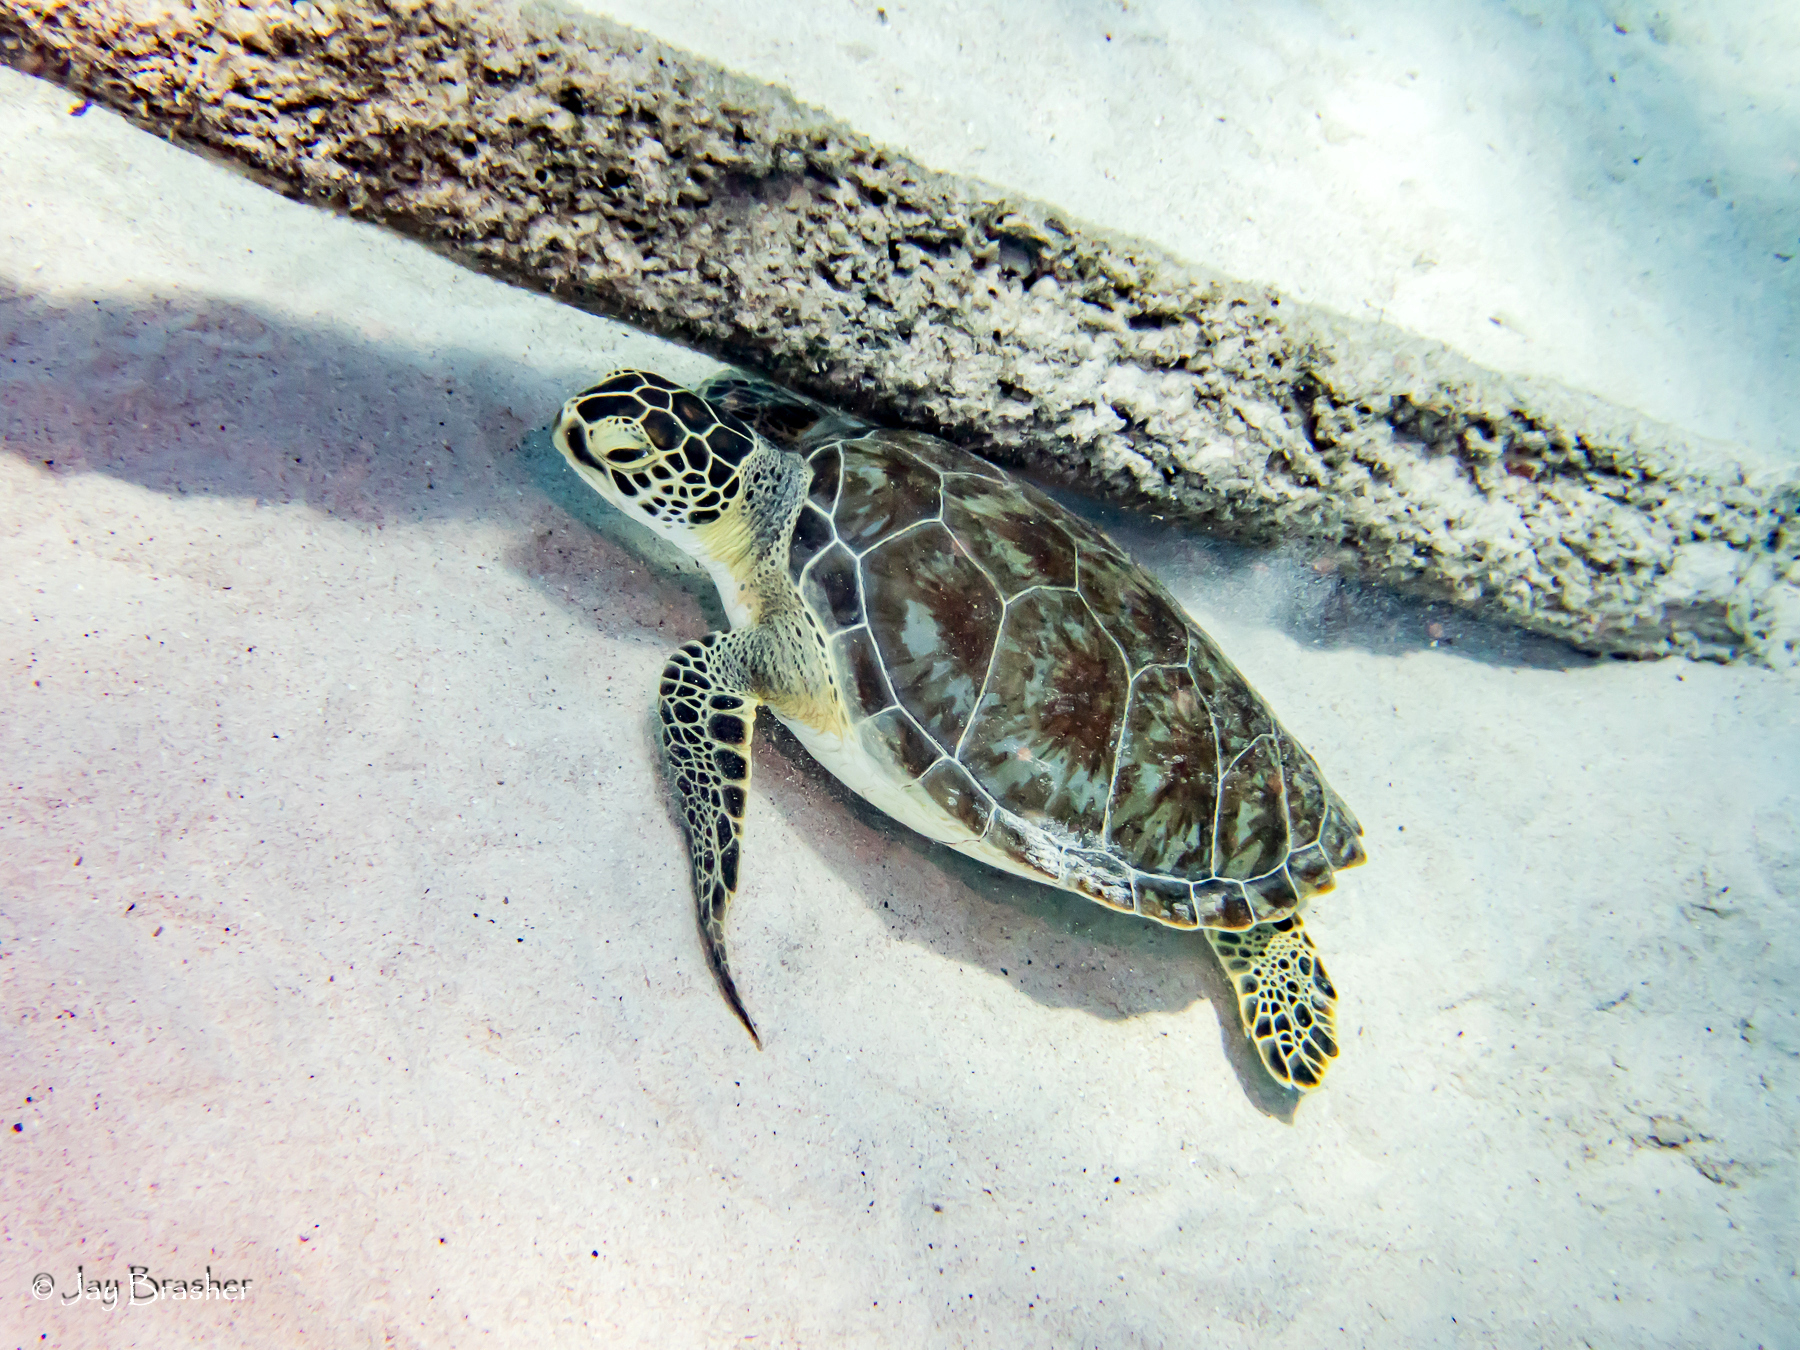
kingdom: Animalia
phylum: Chordata
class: Testudines
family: Cheloniidae
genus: Chelonia
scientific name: Chelonia mydas
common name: Green turtle
